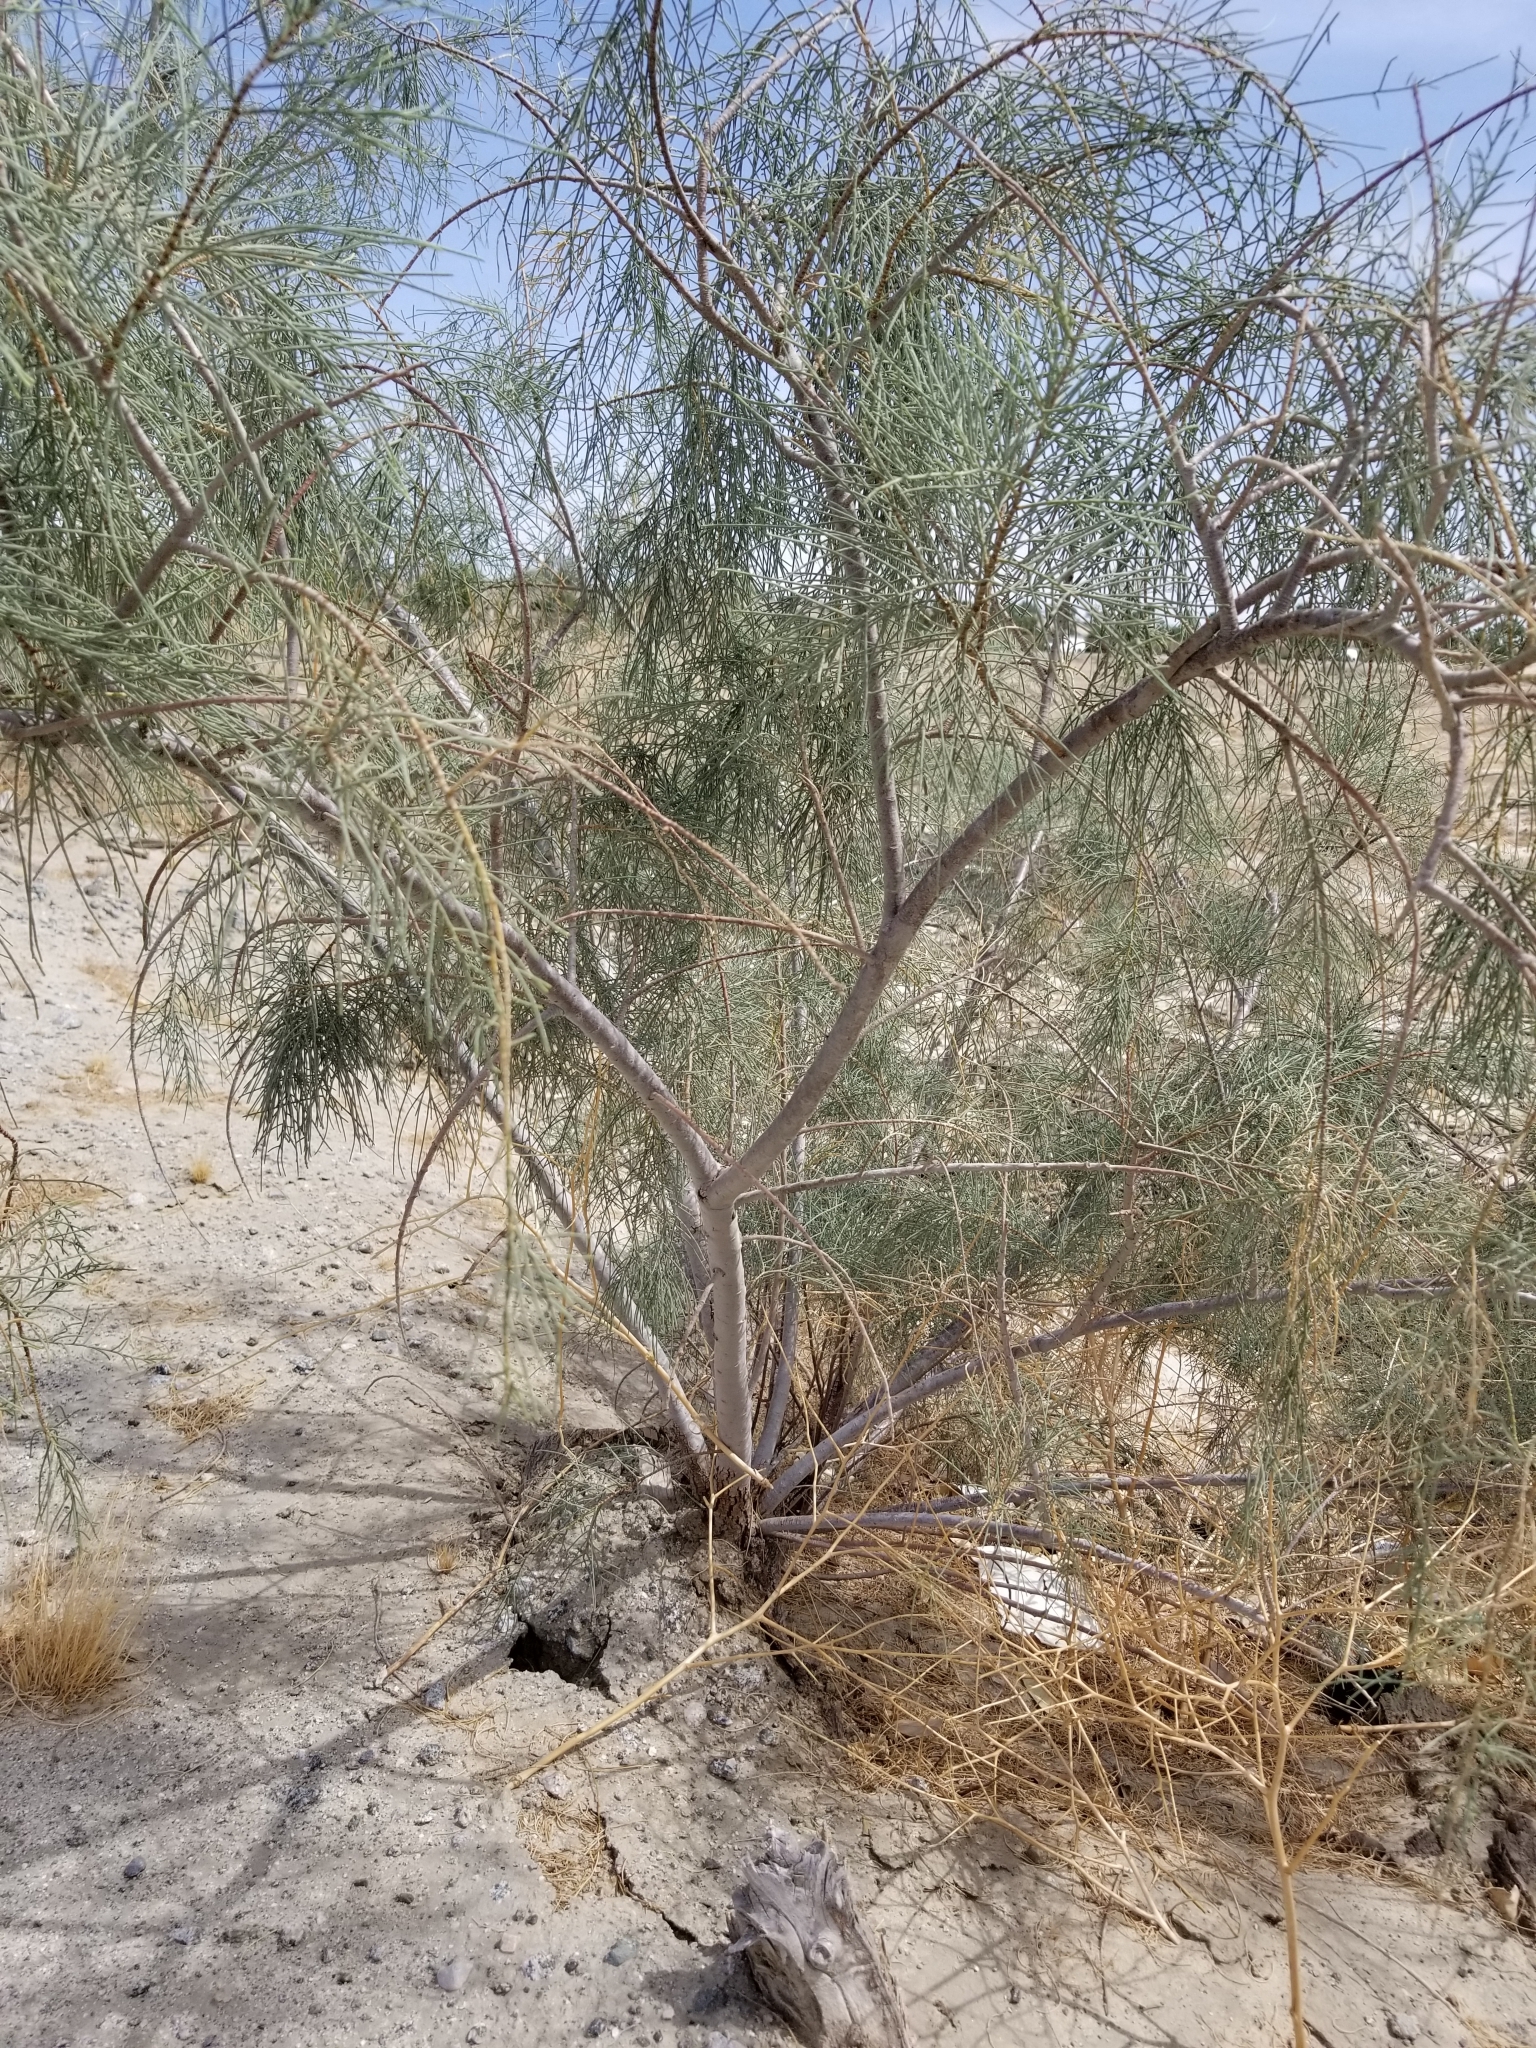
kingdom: Plantae
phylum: Tracheophyta
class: Magnoliopsida
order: Caryophyllales
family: Tamaricaceae
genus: Tamarix
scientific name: Tamarix aphylla
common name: Athel tamarisk
